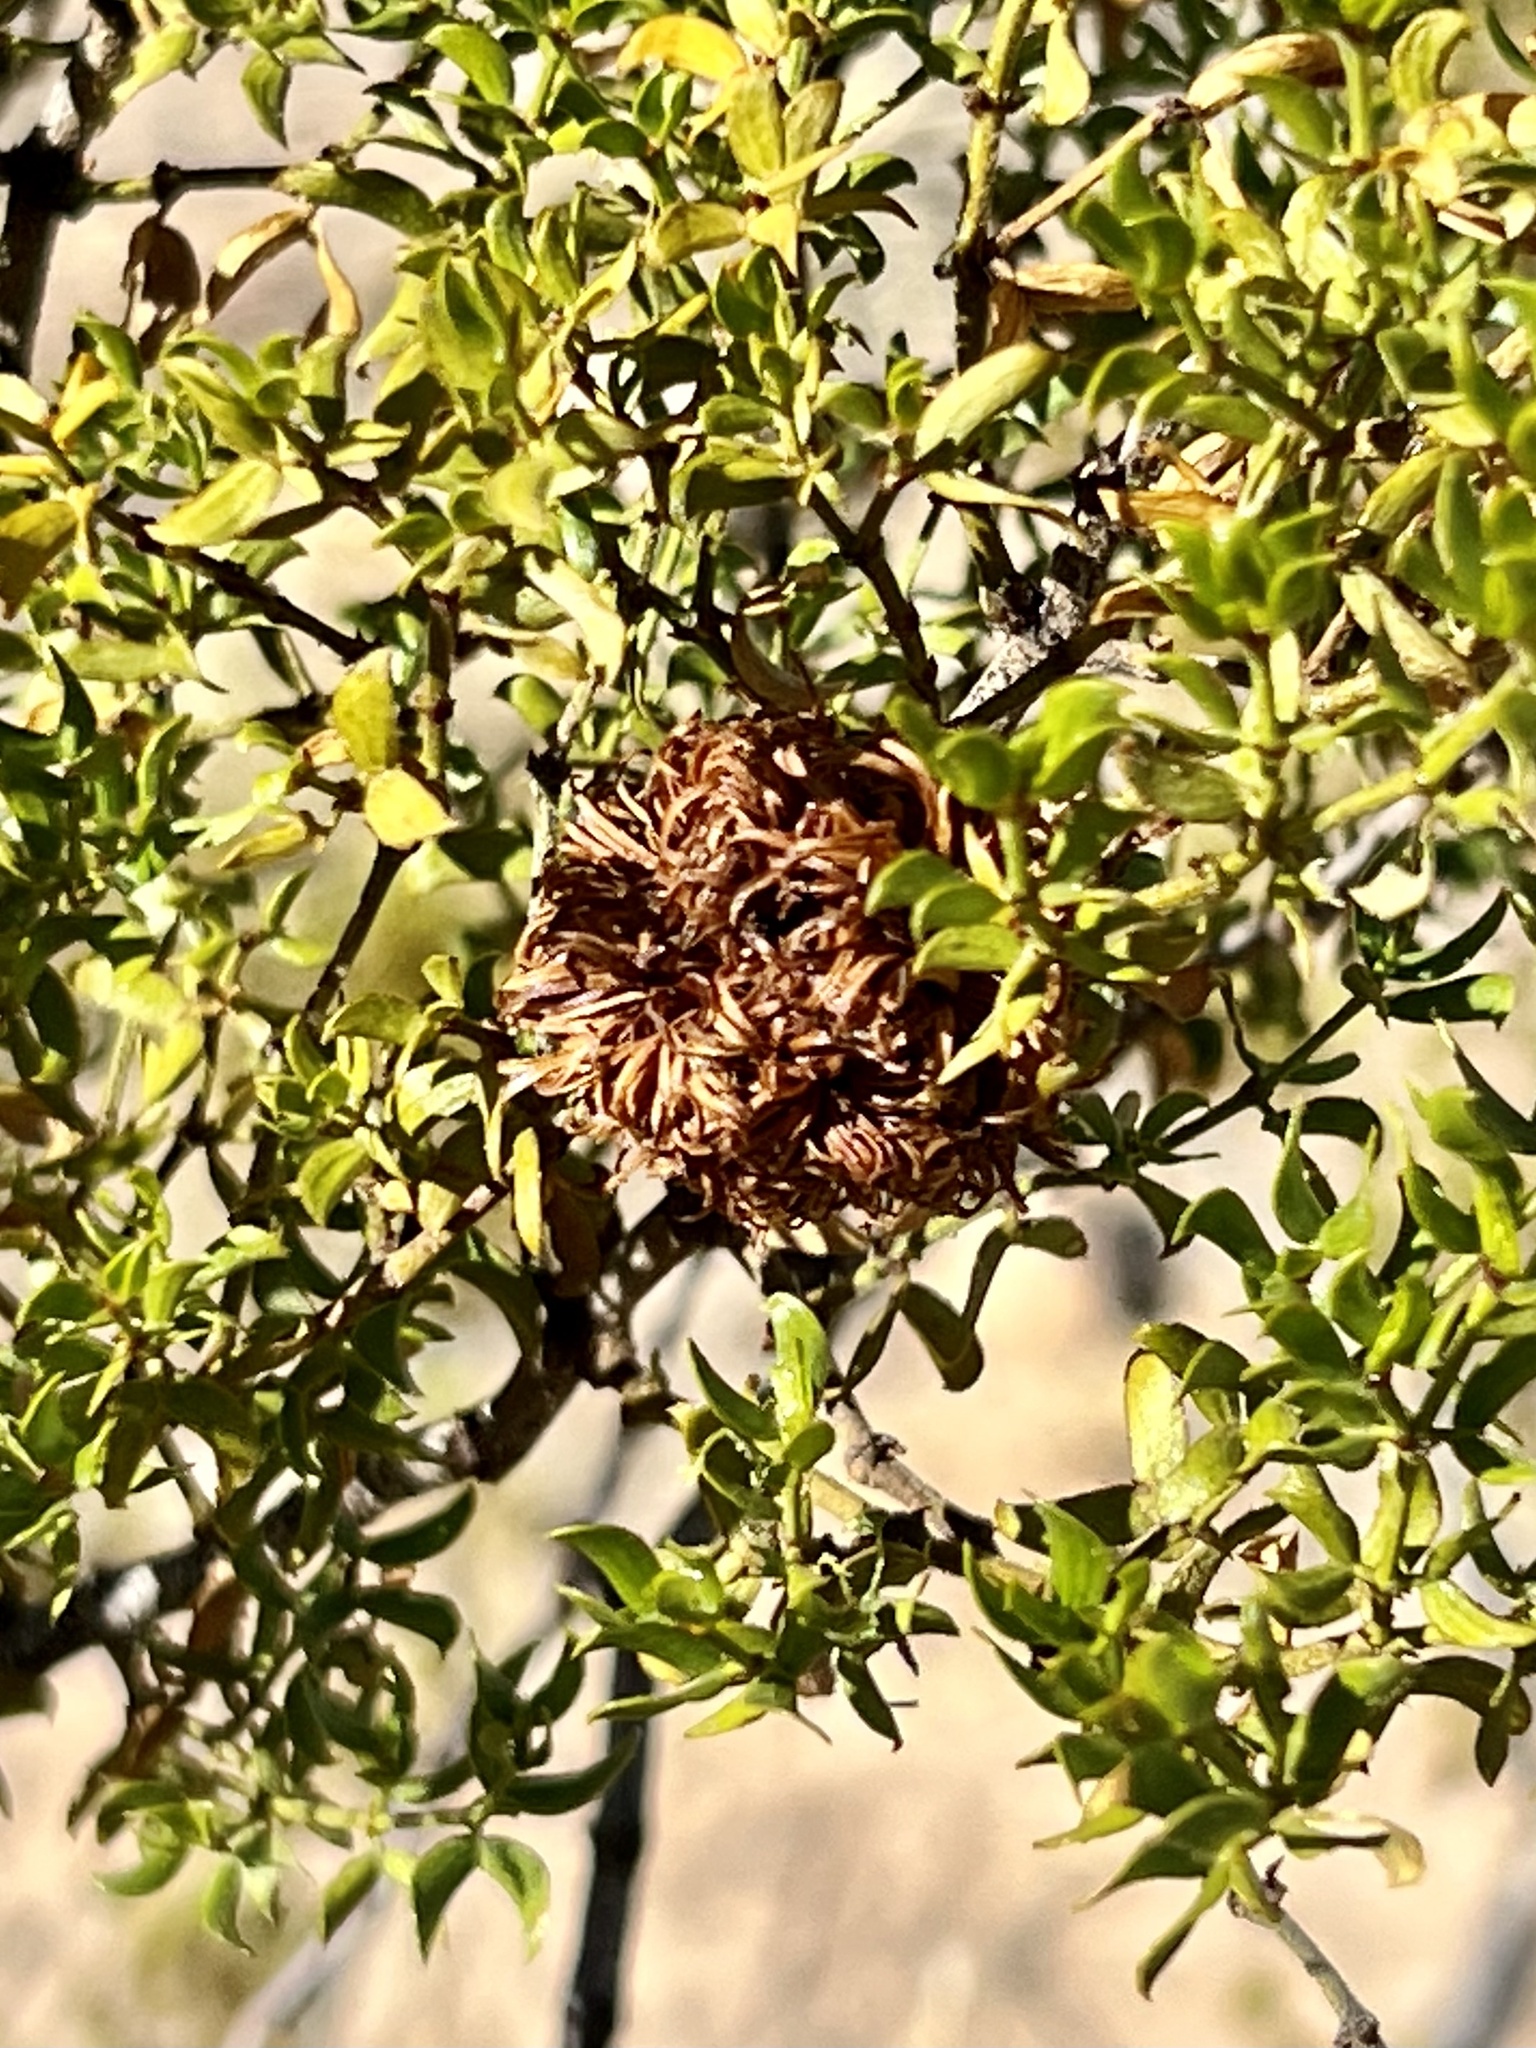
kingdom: Animalia
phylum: Arthropoda
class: Insecta
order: Diptera
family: Cecidomyiidae
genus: Asphondylia
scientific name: Asphondylia auripila
